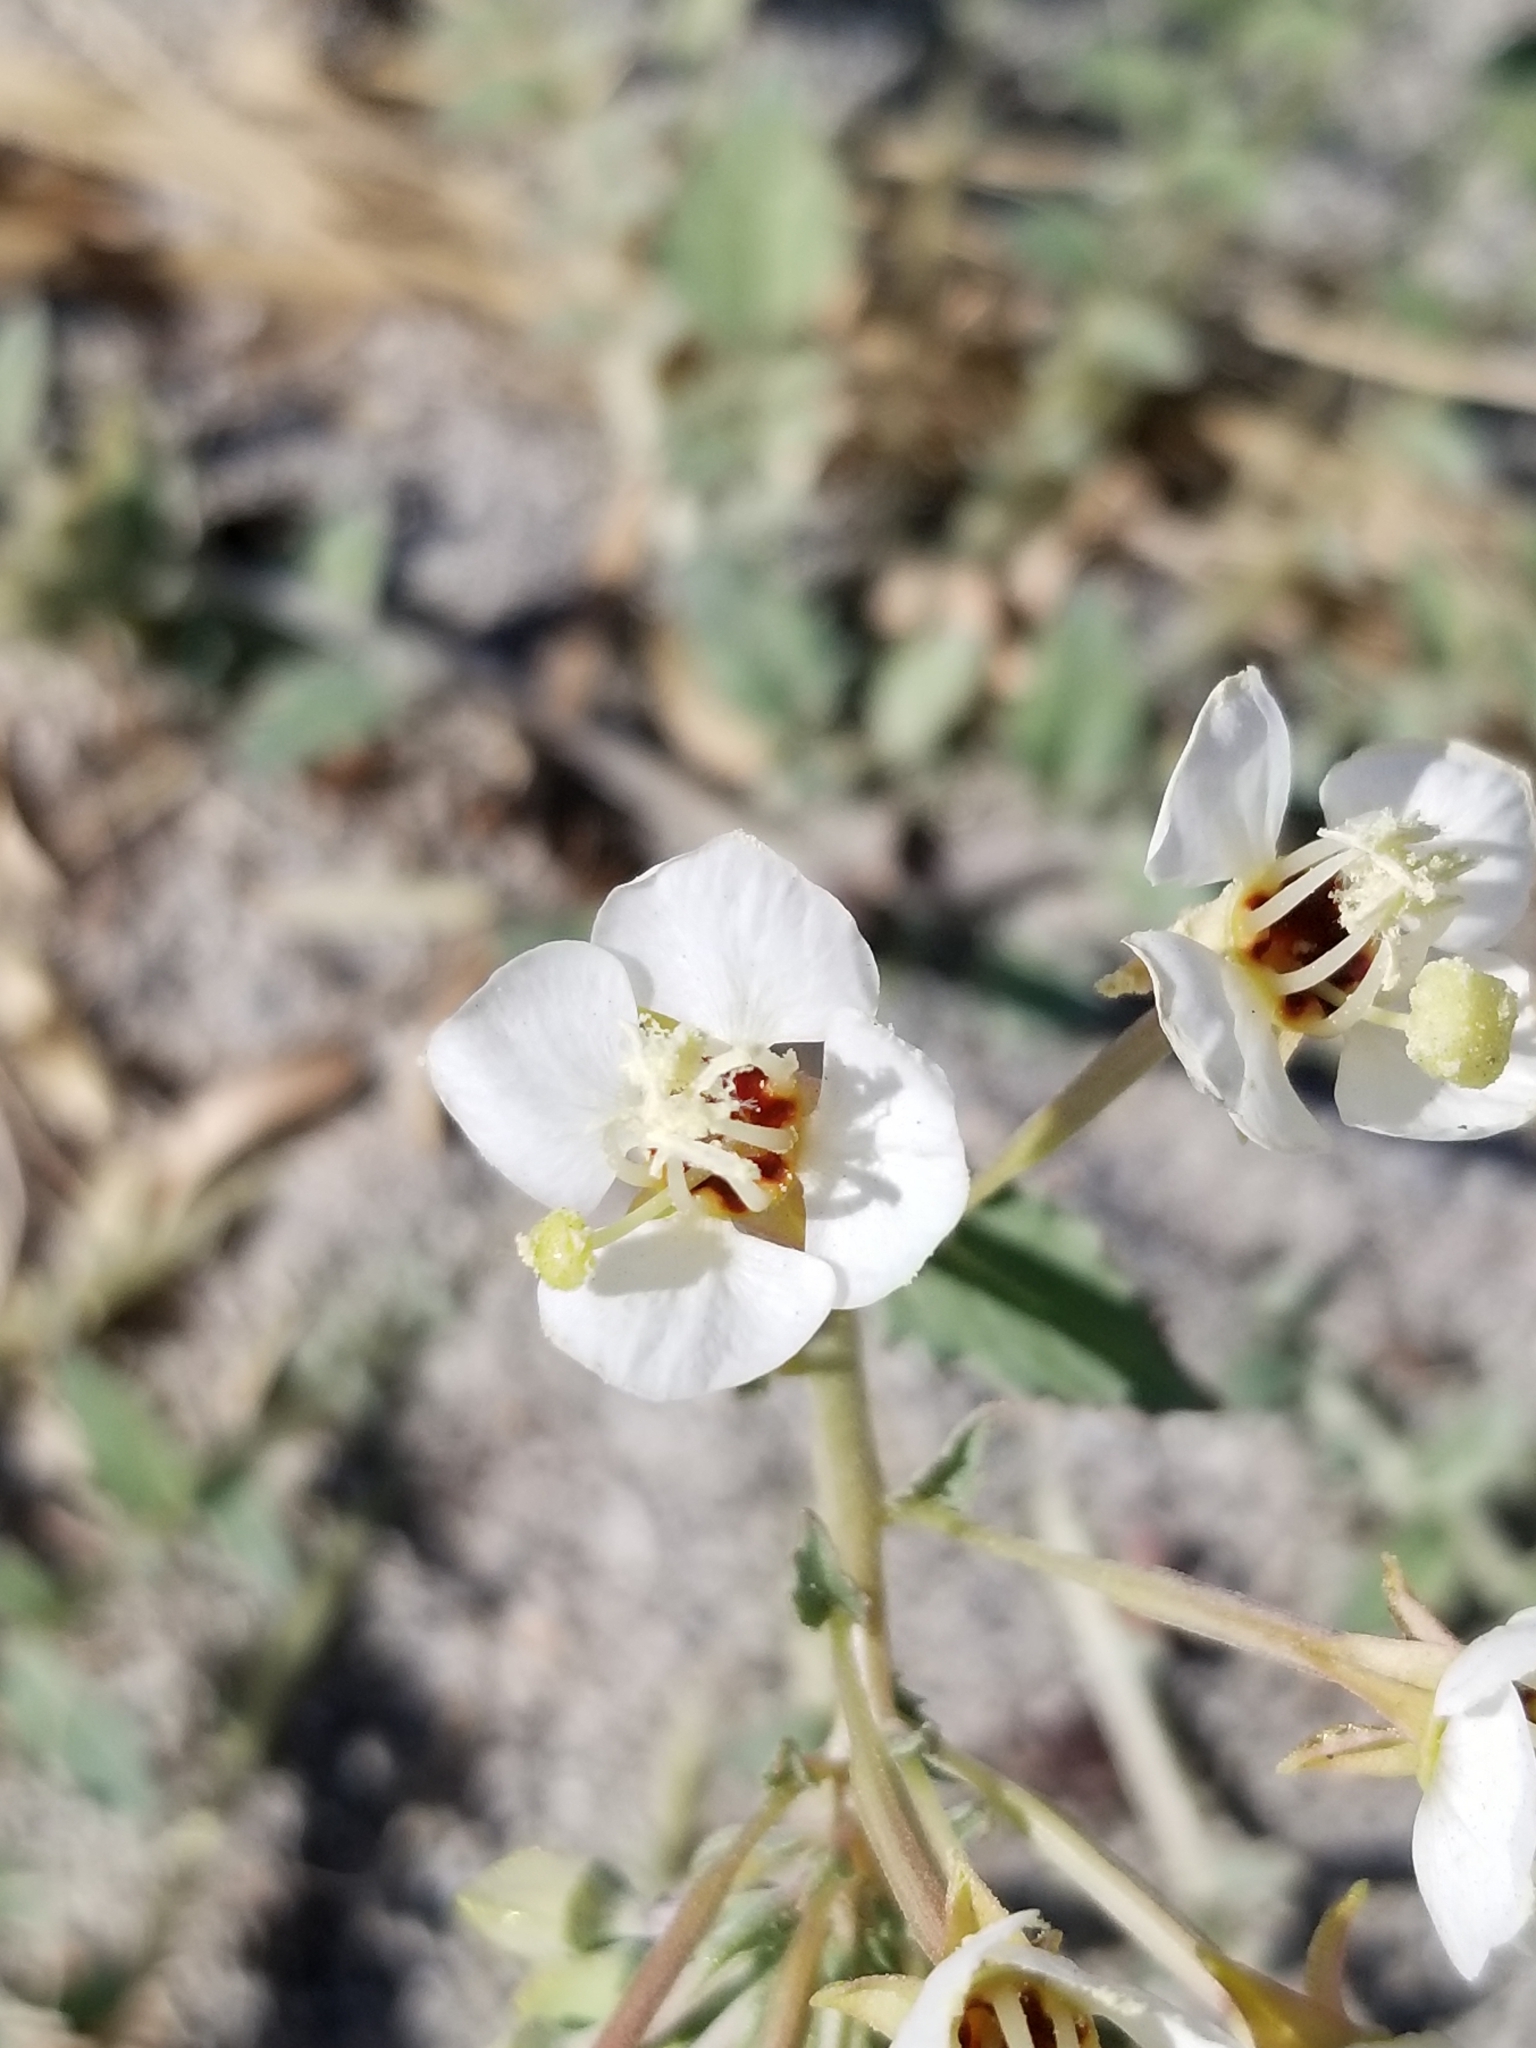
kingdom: Plantae
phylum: Tracheophyta
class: Magnoliopsida
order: Myrtales
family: Onagraceae
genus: Chylismia
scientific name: Chylismia claviformis
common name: Browneyes
